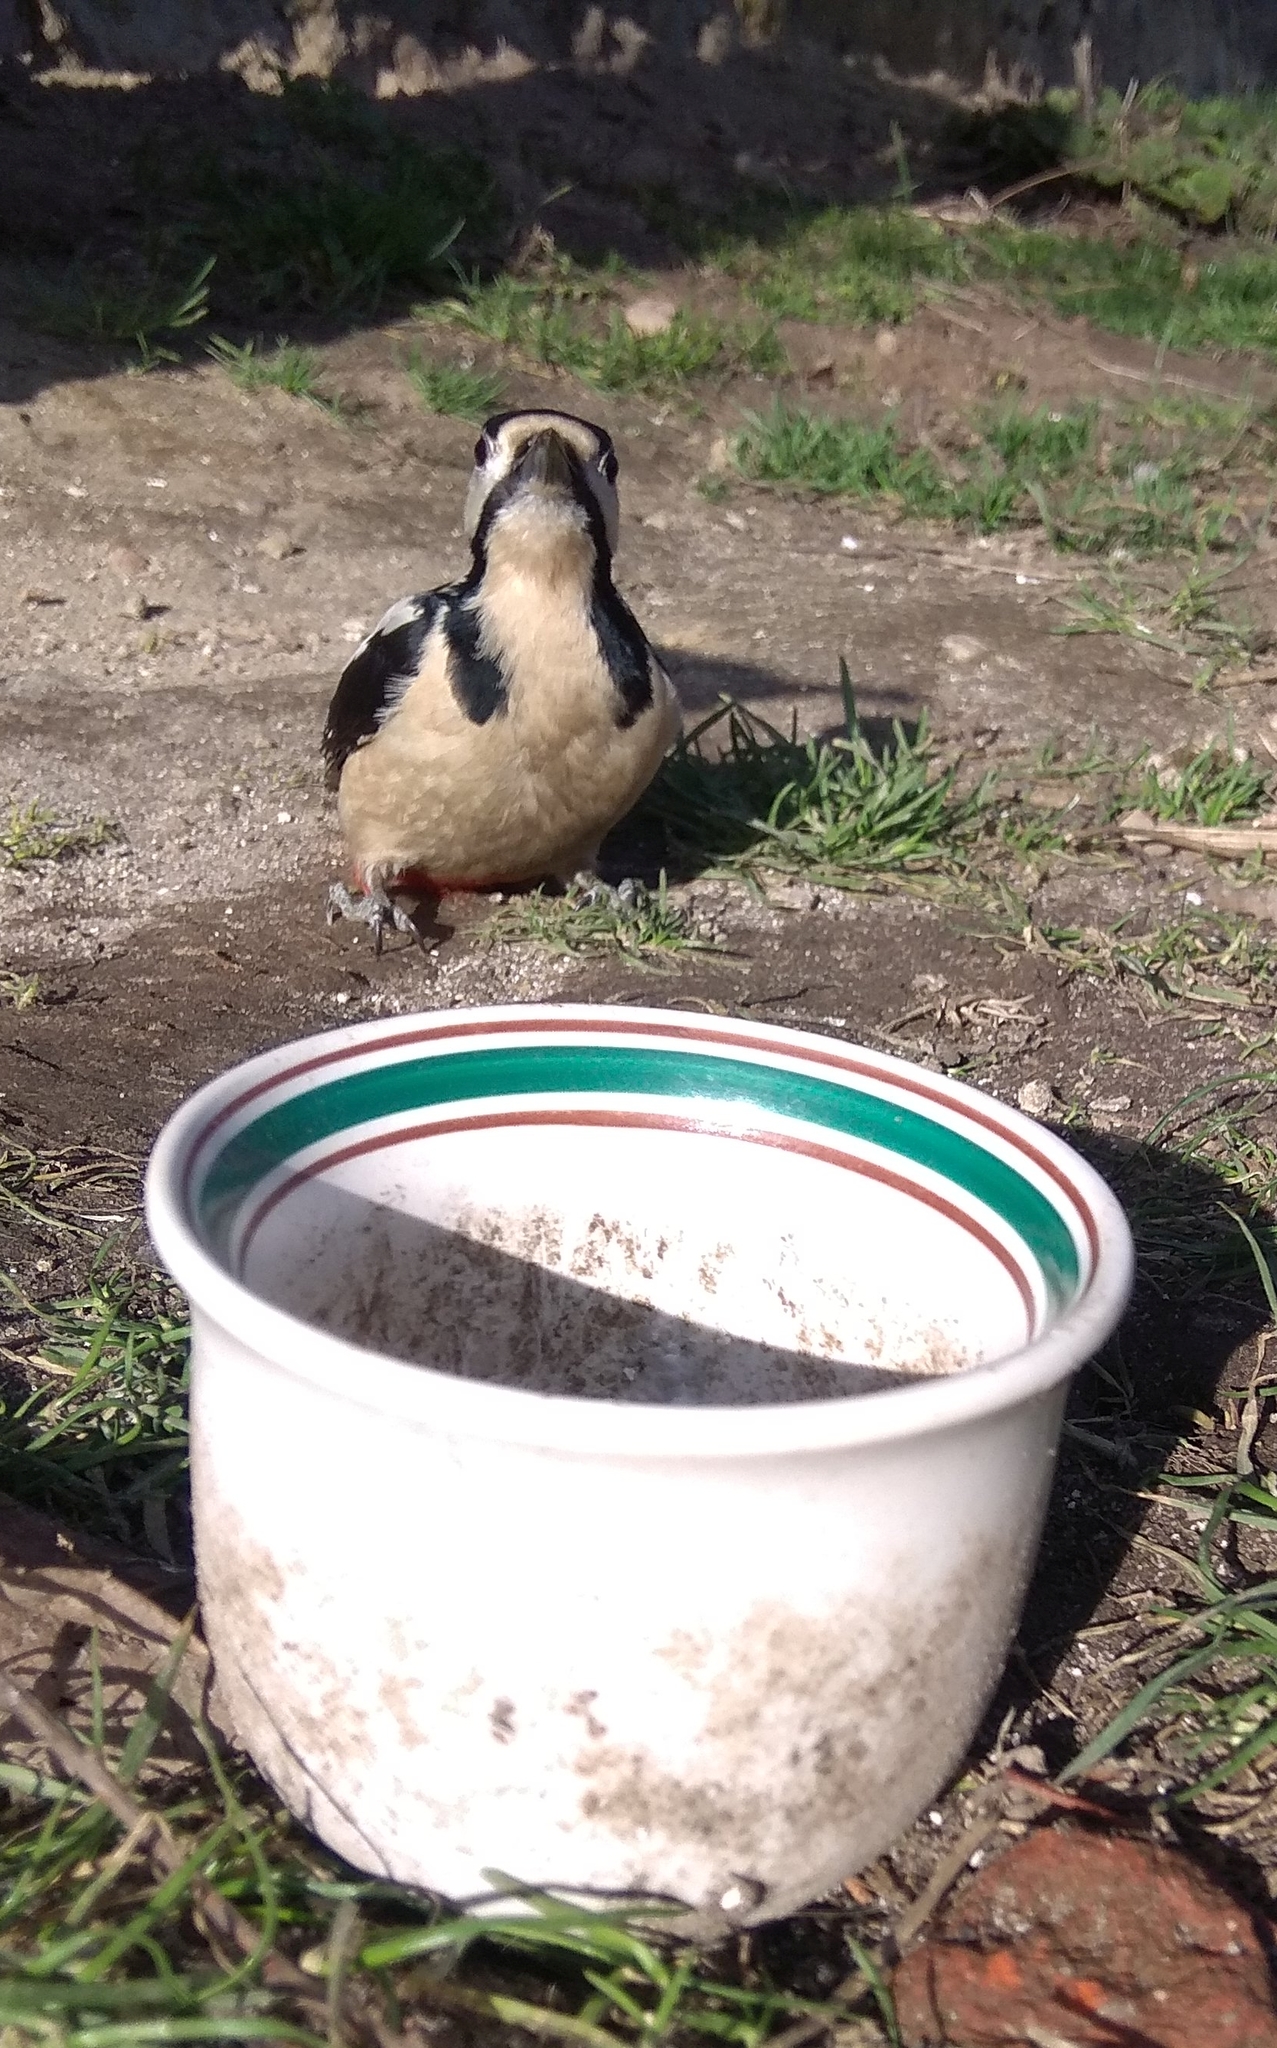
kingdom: Animalia
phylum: Chordata
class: Aves
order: Piciformes
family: Picidae
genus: Dendrocopos
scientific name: Dendrocopos major
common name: Great spotted woodpecker
